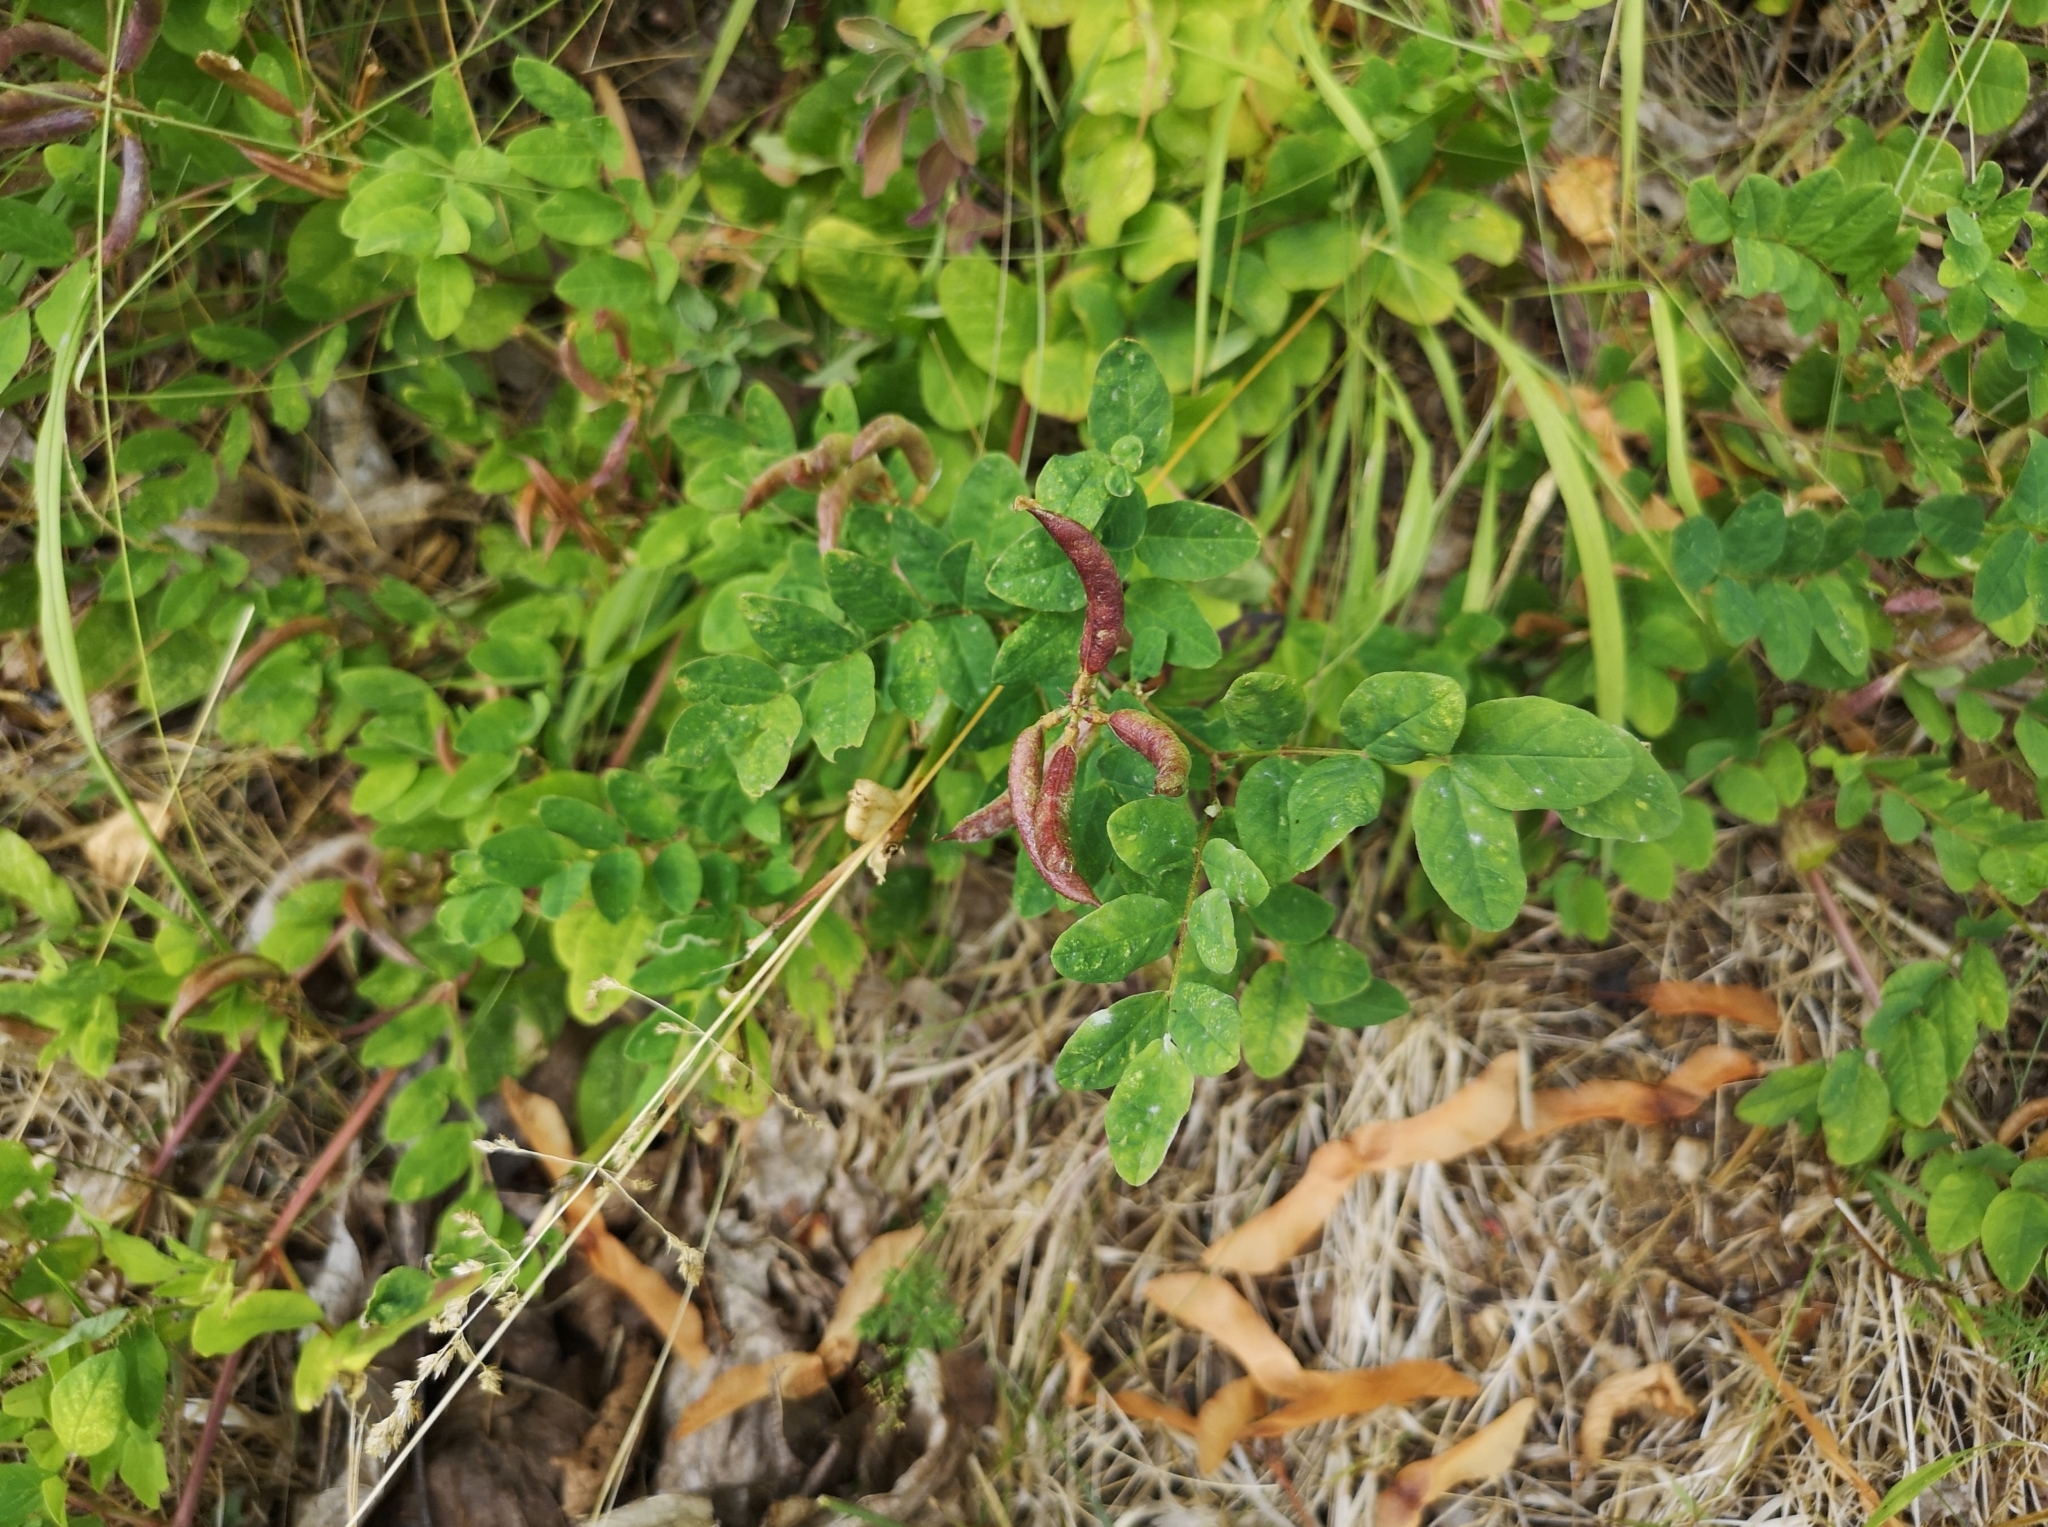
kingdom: Plantae
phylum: Tracheophyta
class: Magnoliopsida
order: Fabales
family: Fabaceae
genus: Astragalus
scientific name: Astragalus glycyphyllos
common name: Wild liquorice
